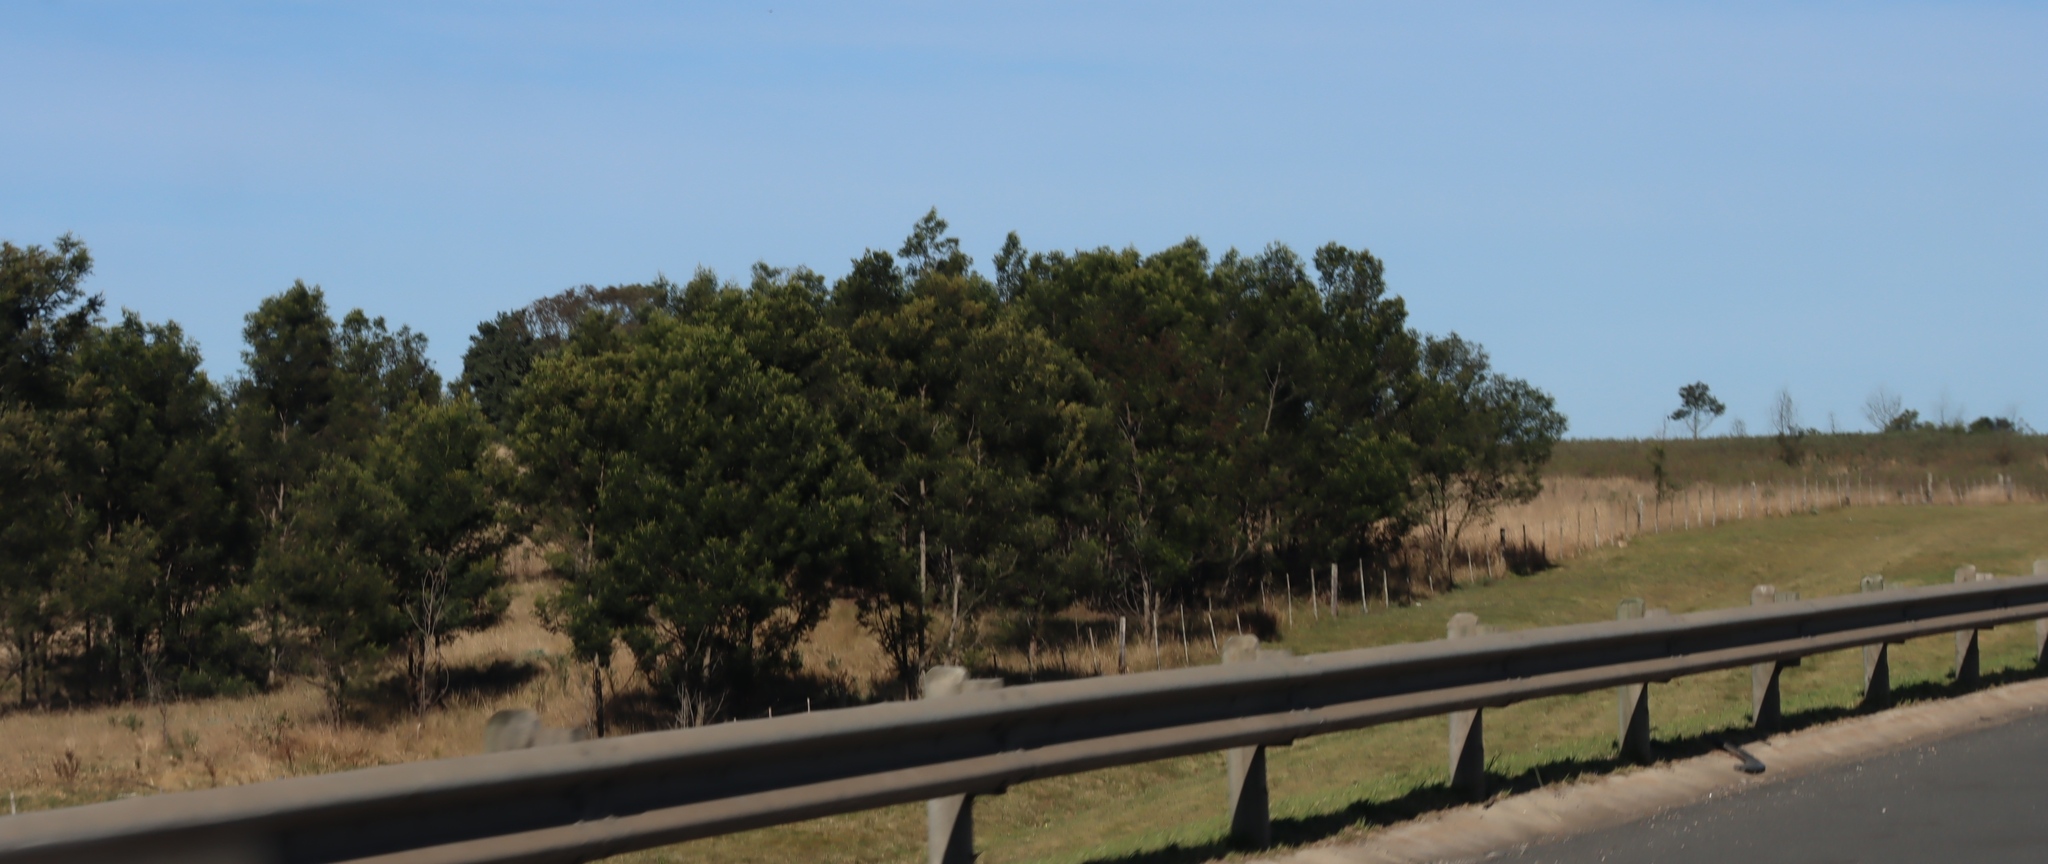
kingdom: Plantae
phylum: Tracheophyta
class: Magnoliopsida
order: Fabales
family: Fabaceae
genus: Acacia
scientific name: Acacia mearnsii
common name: Black wattle
